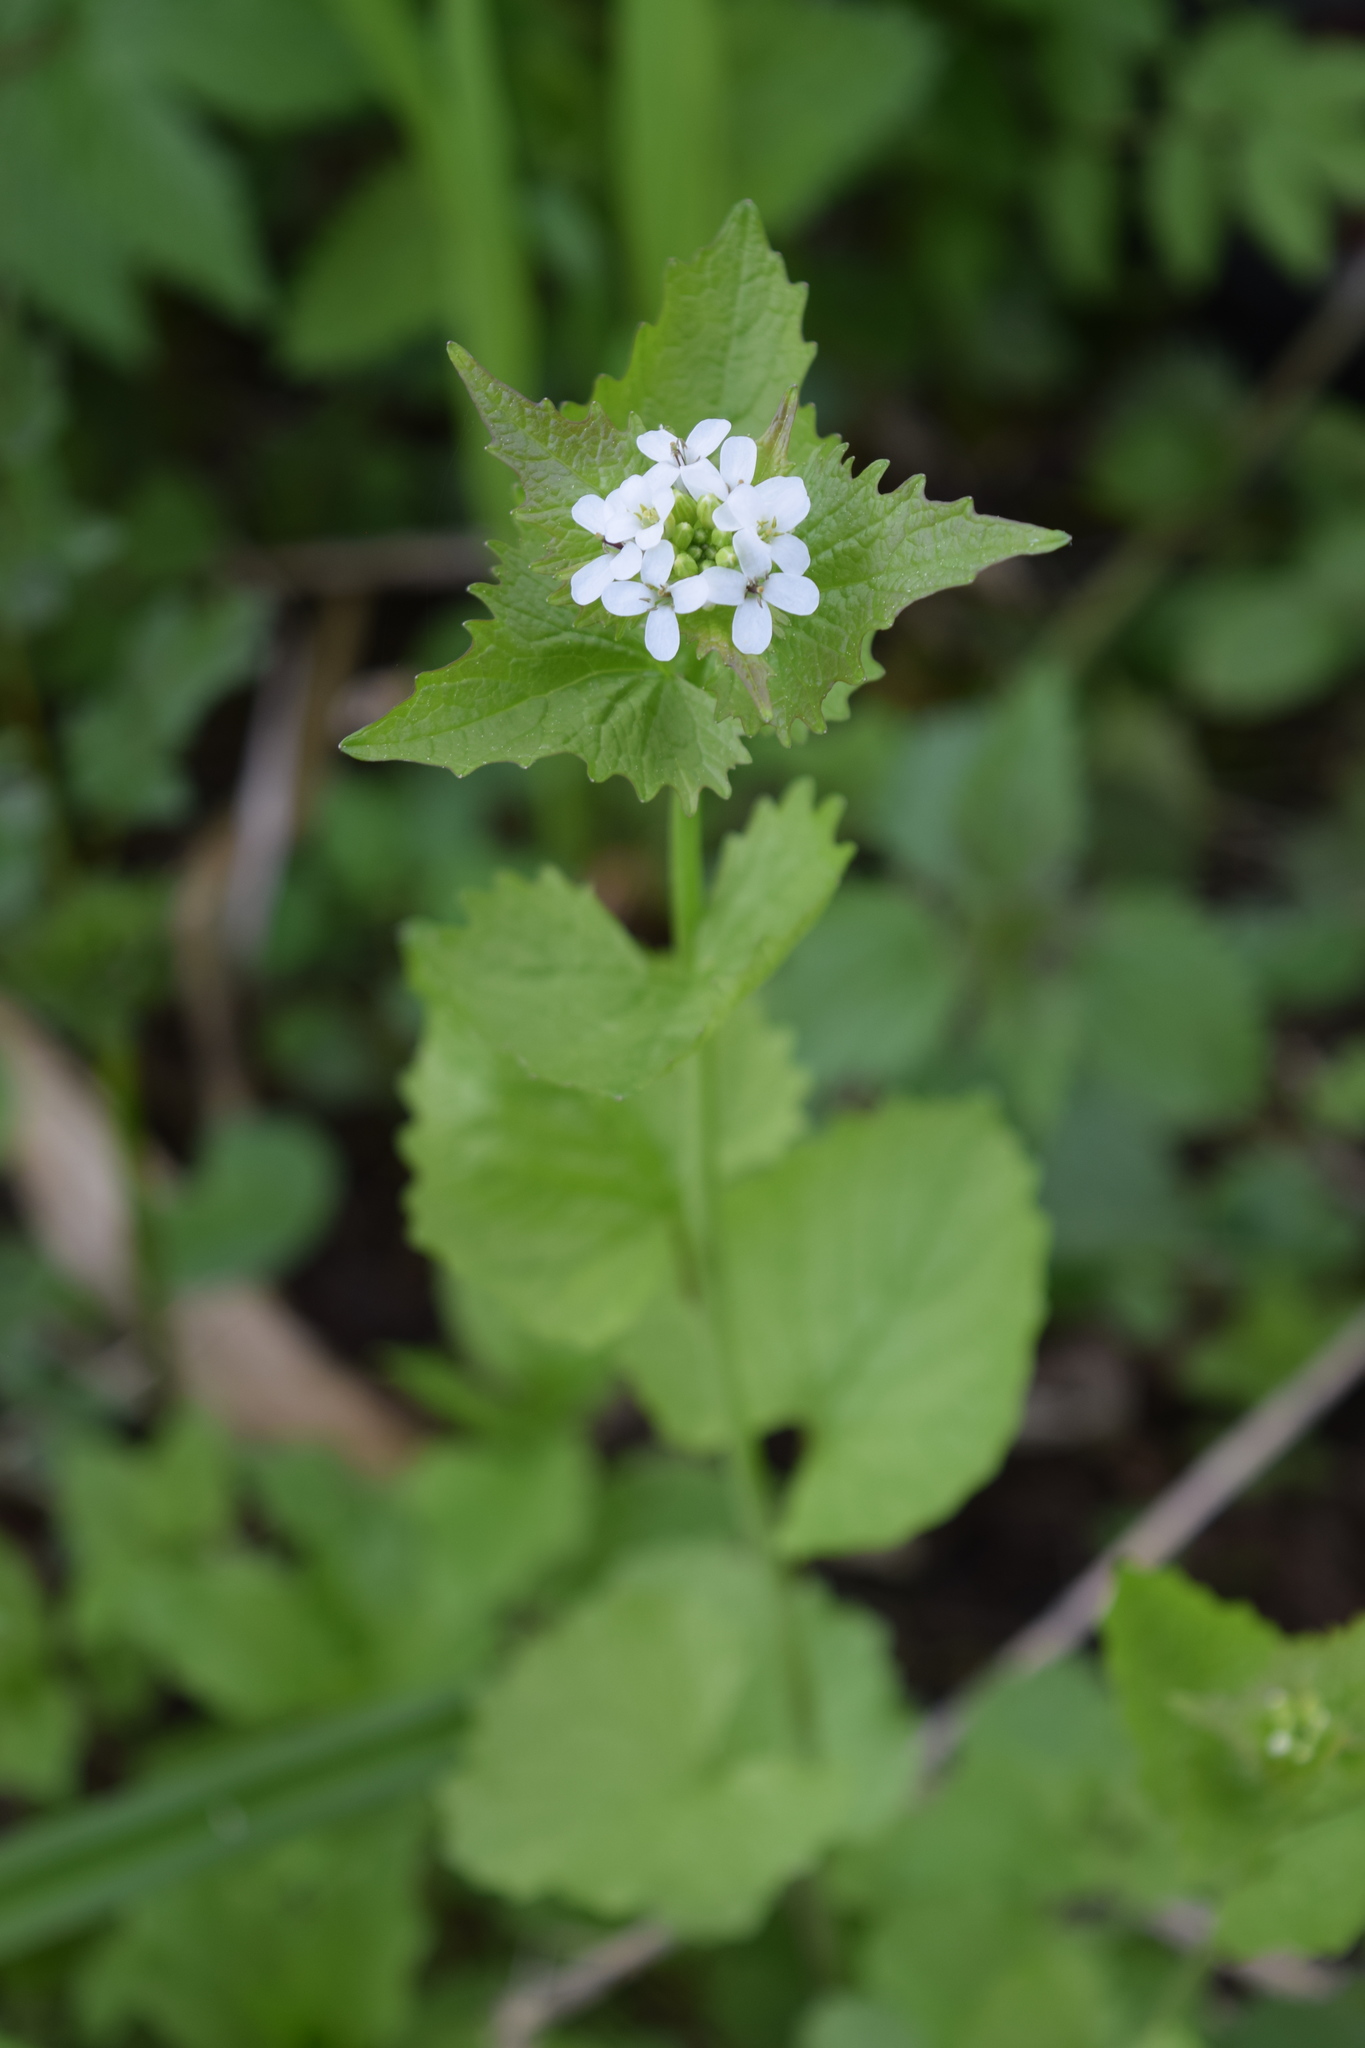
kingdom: Plantae
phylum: Tracheophyta
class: Magnoliopsida
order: Brassicales
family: Brassicaceae
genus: Alliaria
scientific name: Alliaria petiolata
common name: Garlic mustard
